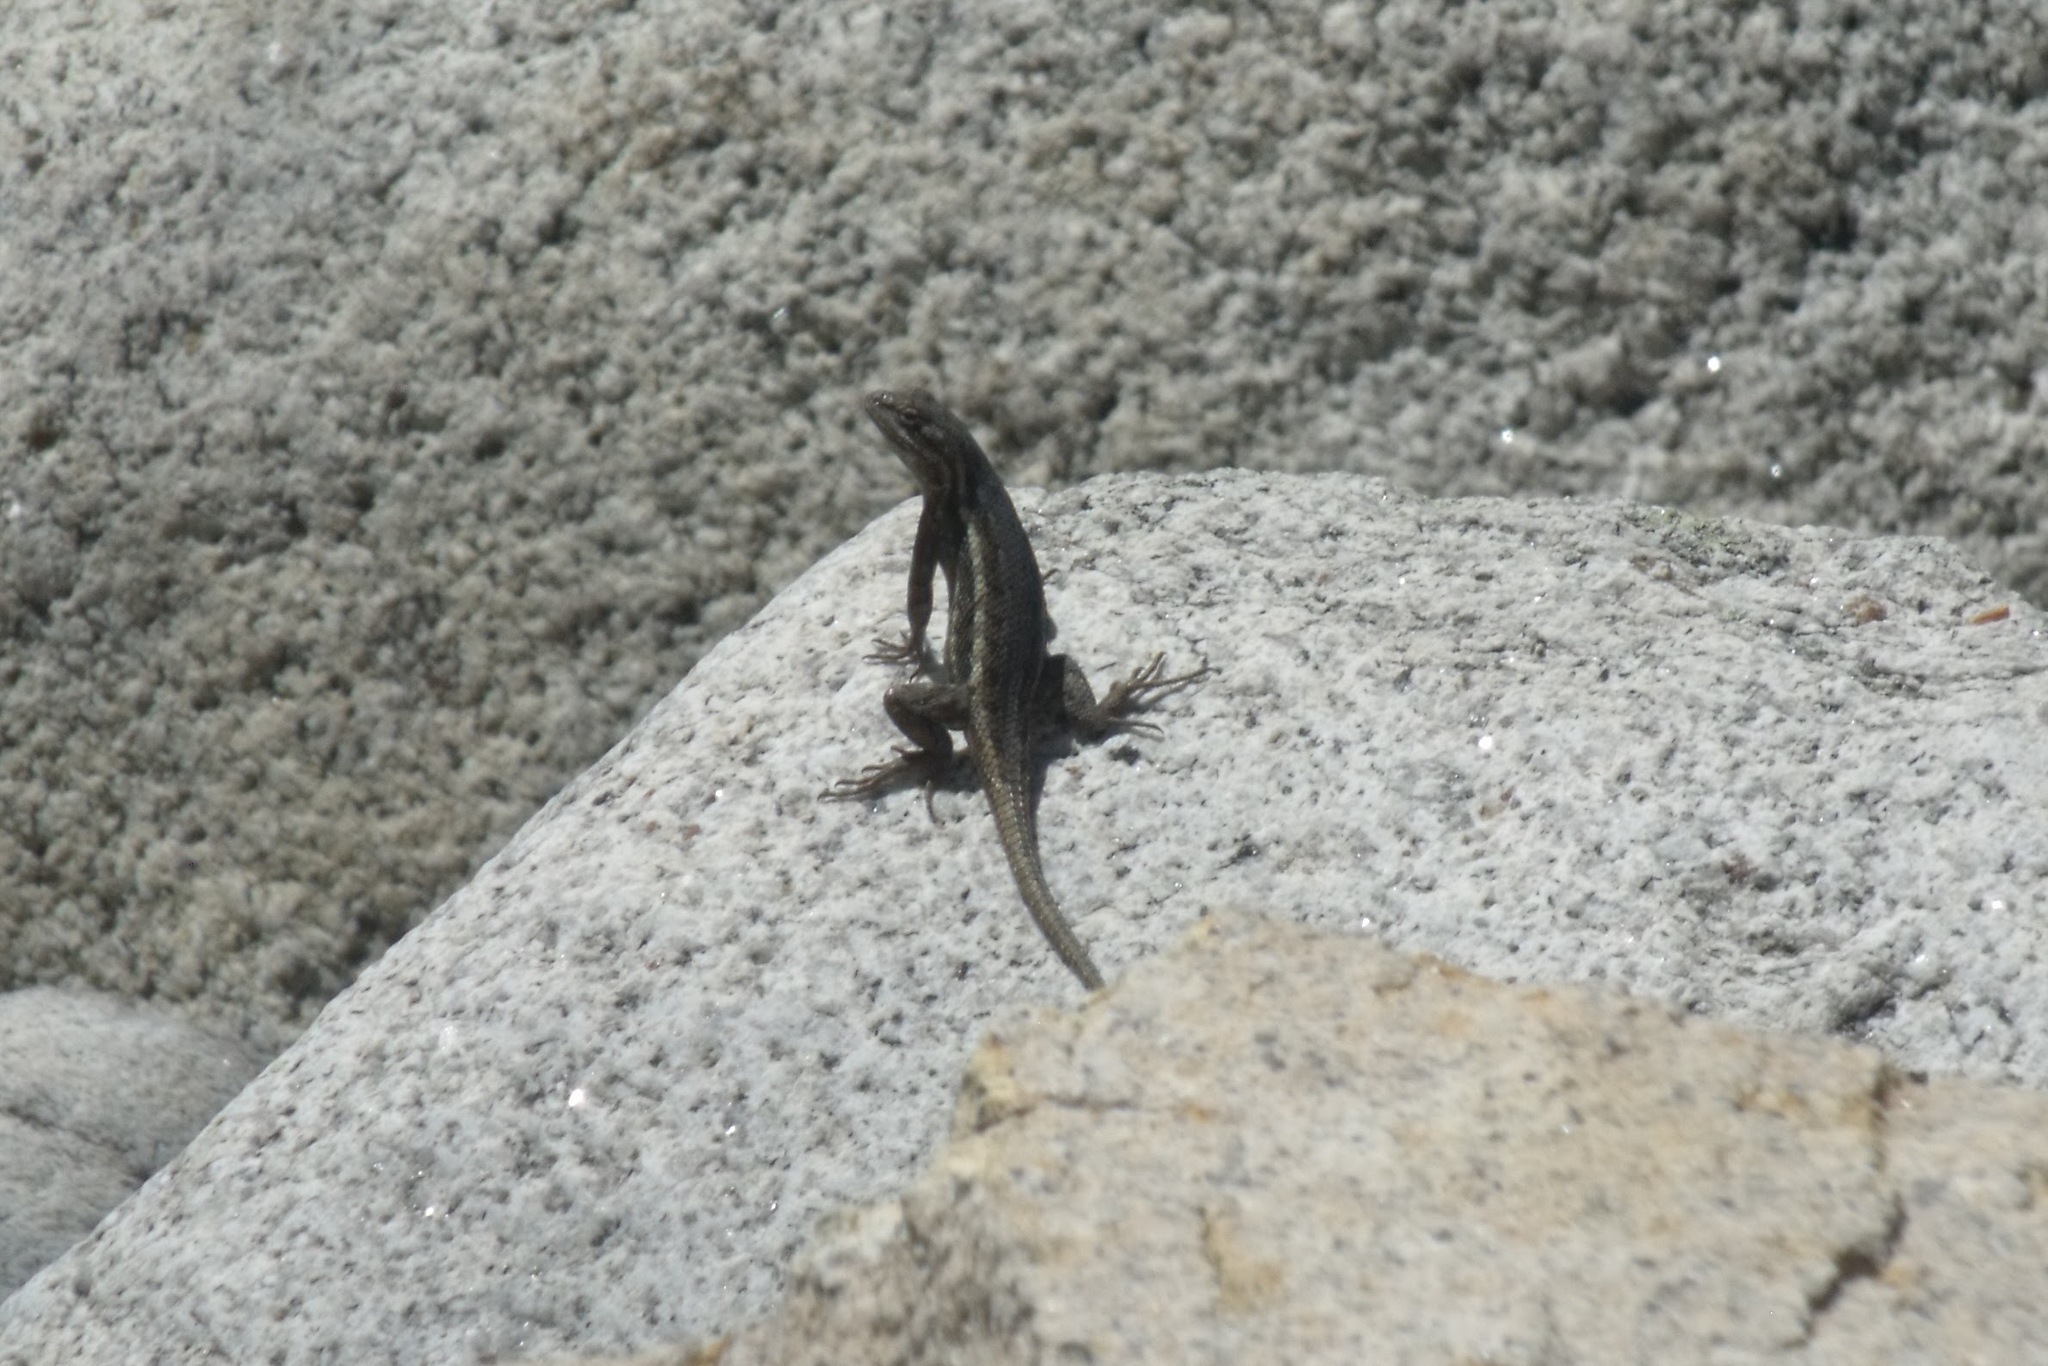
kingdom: Animalia
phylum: Chordata
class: Squamata
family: Phrynosomatidae
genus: Sceloporus
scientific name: Sceloporus cowlesi
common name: White sands prairie lizard
